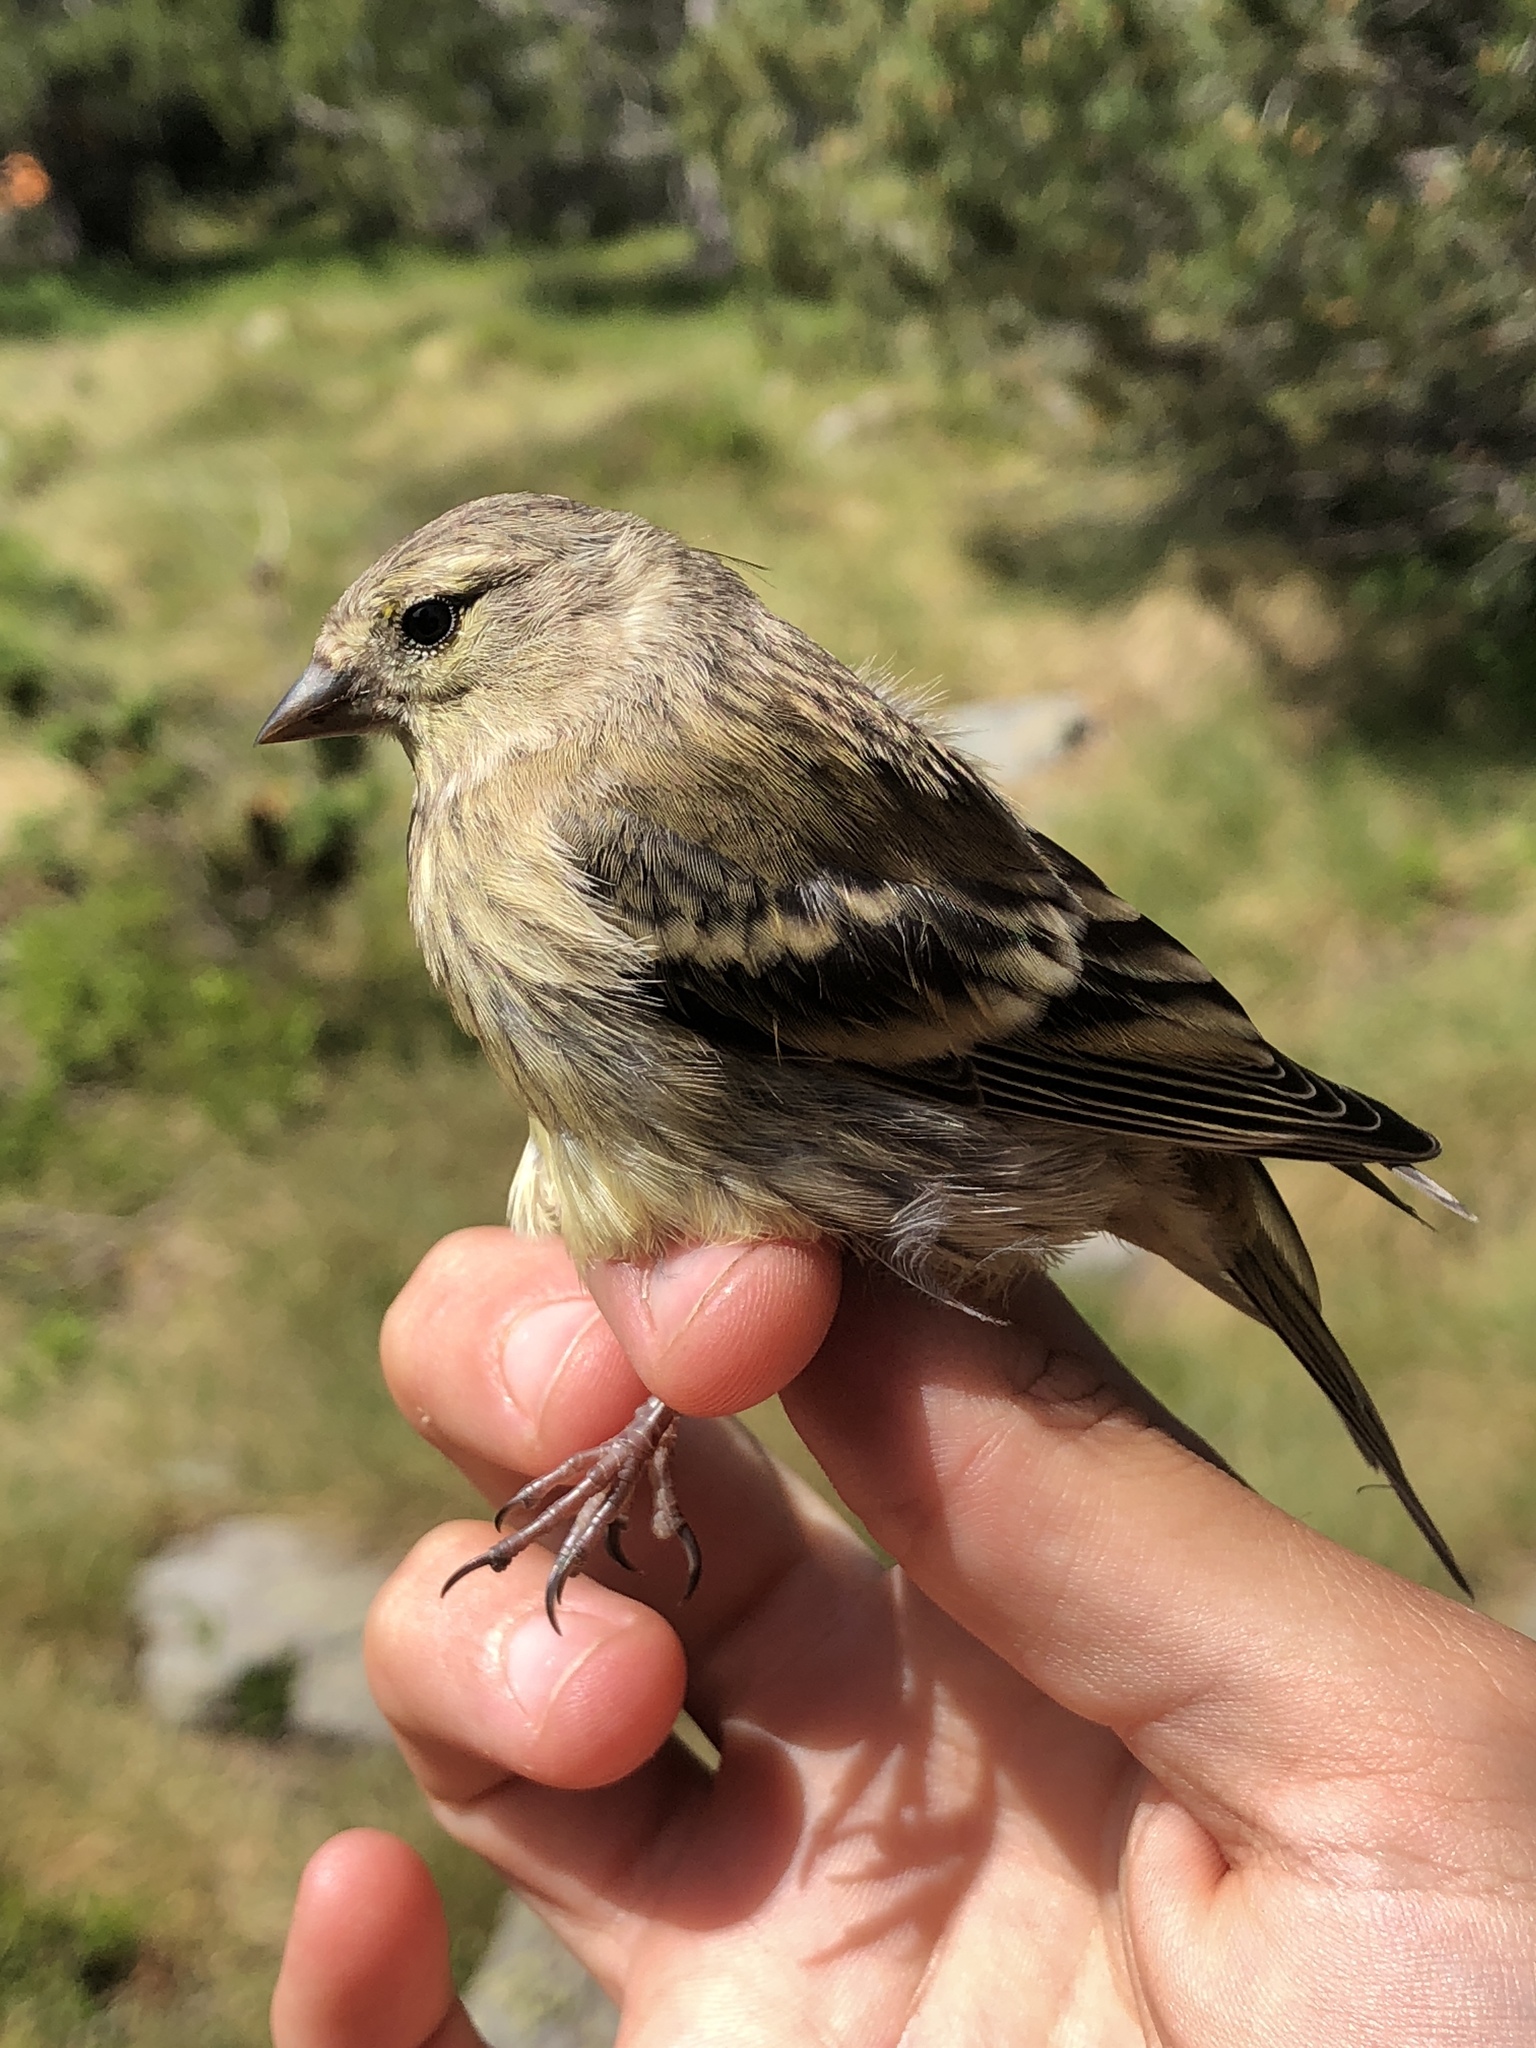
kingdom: Animalia
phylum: Chordata
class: Aves
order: Passeriformes
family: Fringillidae
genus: Carduelis
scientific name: Carduelis citrinella
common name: Citril finch
